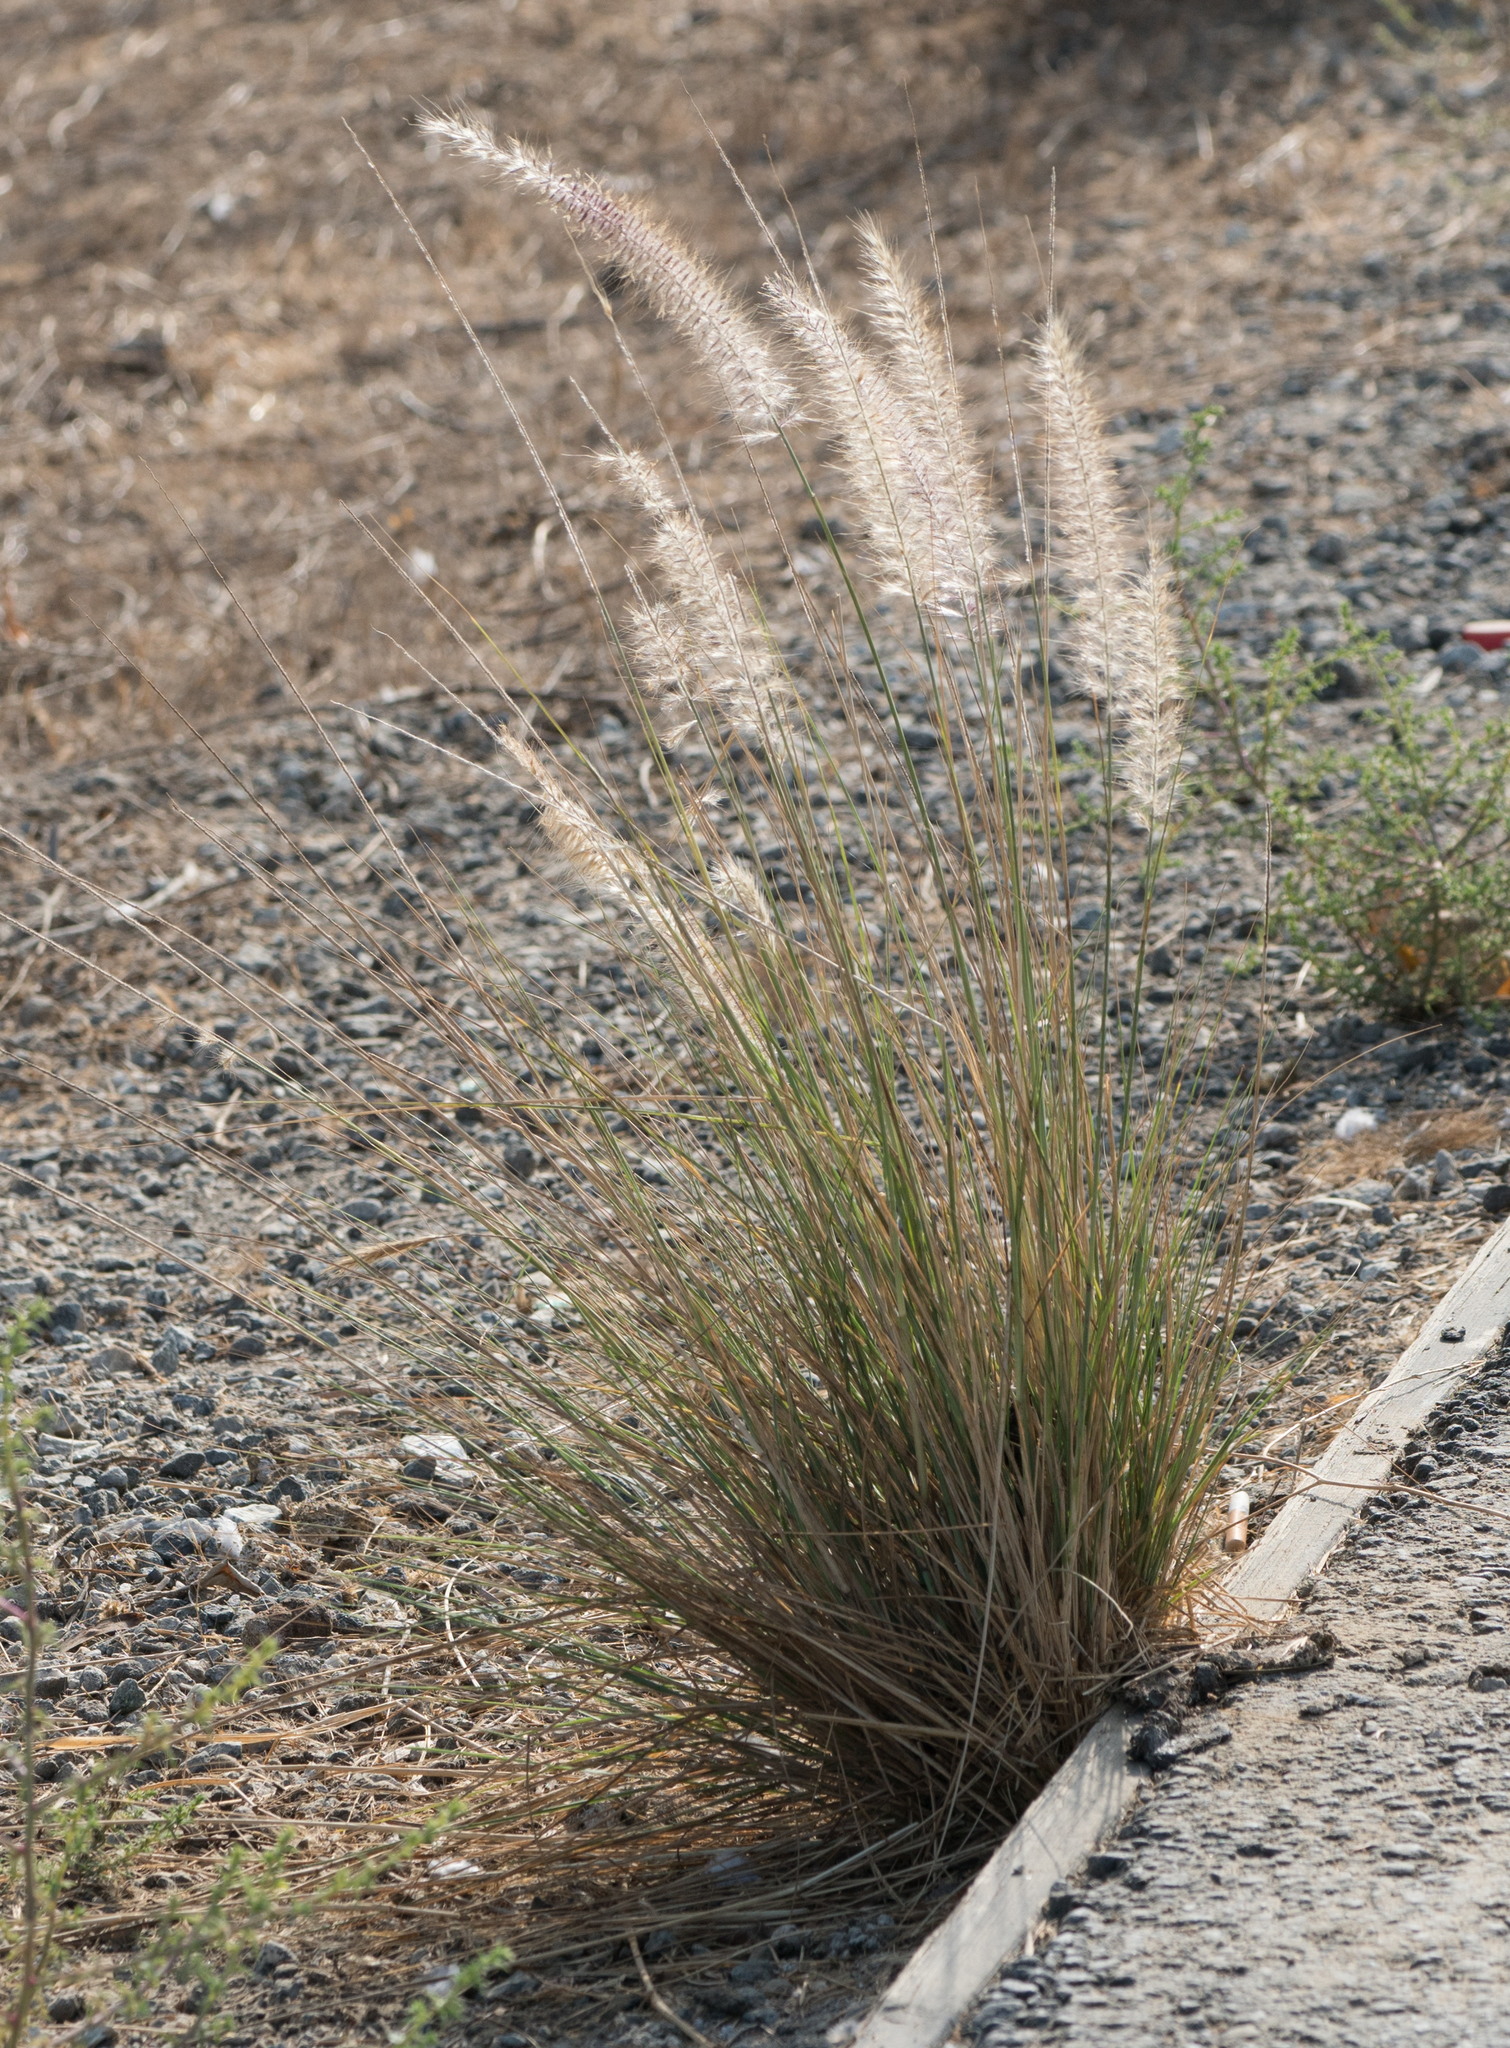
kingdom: Plantae
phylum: Tracheophyta
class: Liliopsida
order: Poales
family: Poaceae
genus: Cenchrus
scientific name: Cenchrus setaceus
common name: Crimson fountaingrass
